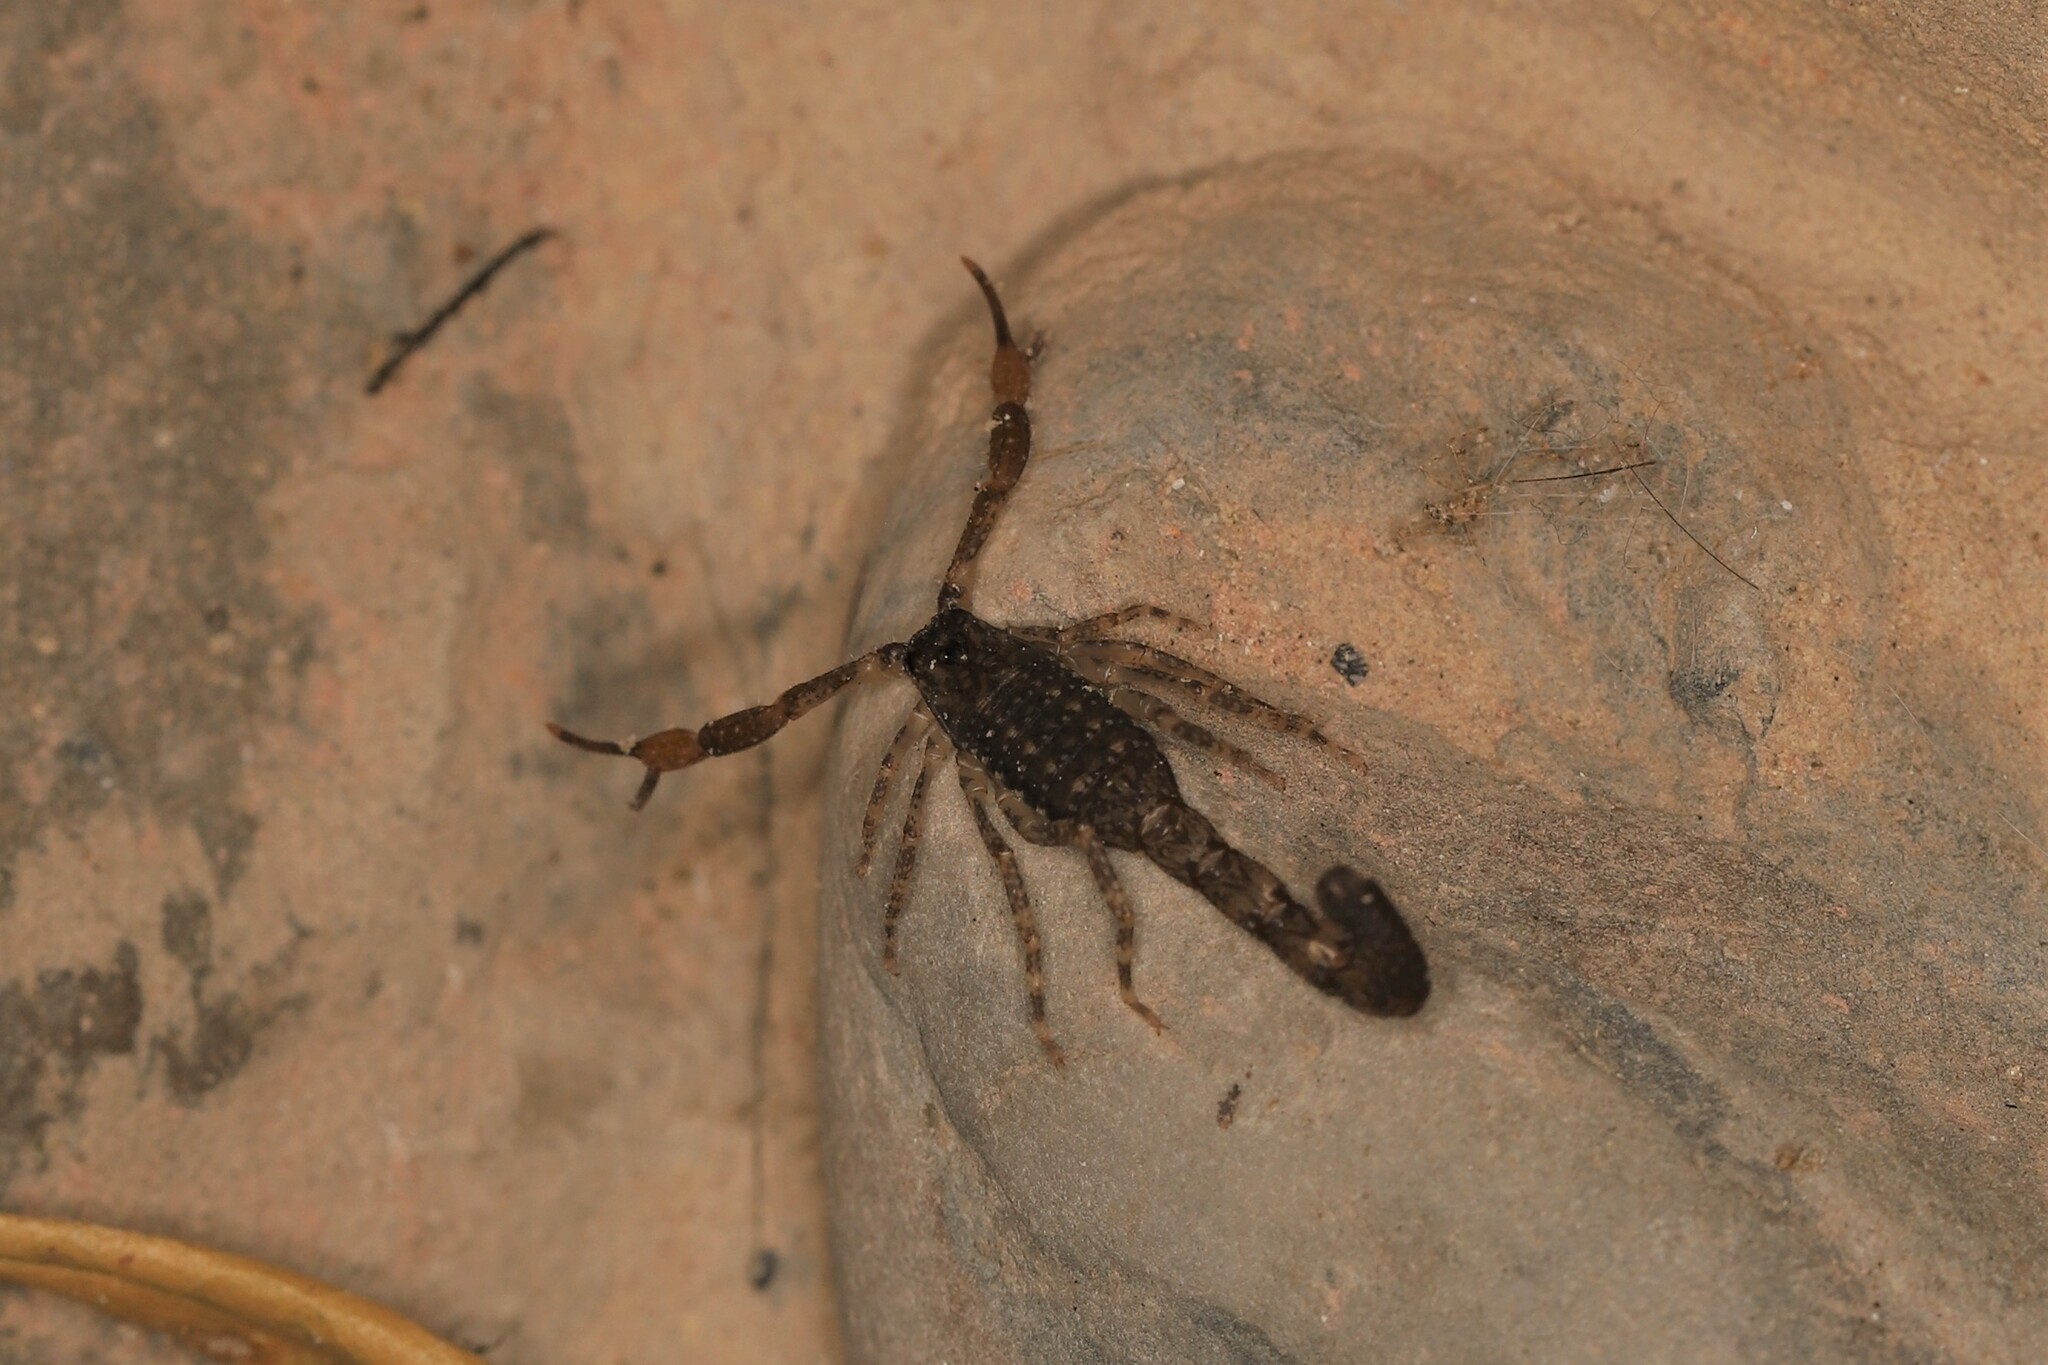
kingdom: Animalia
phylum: Arthropoda
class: Arachnida
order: Scorpiones
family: Buthidae
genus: Tityus
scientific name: Tityus columbianus
